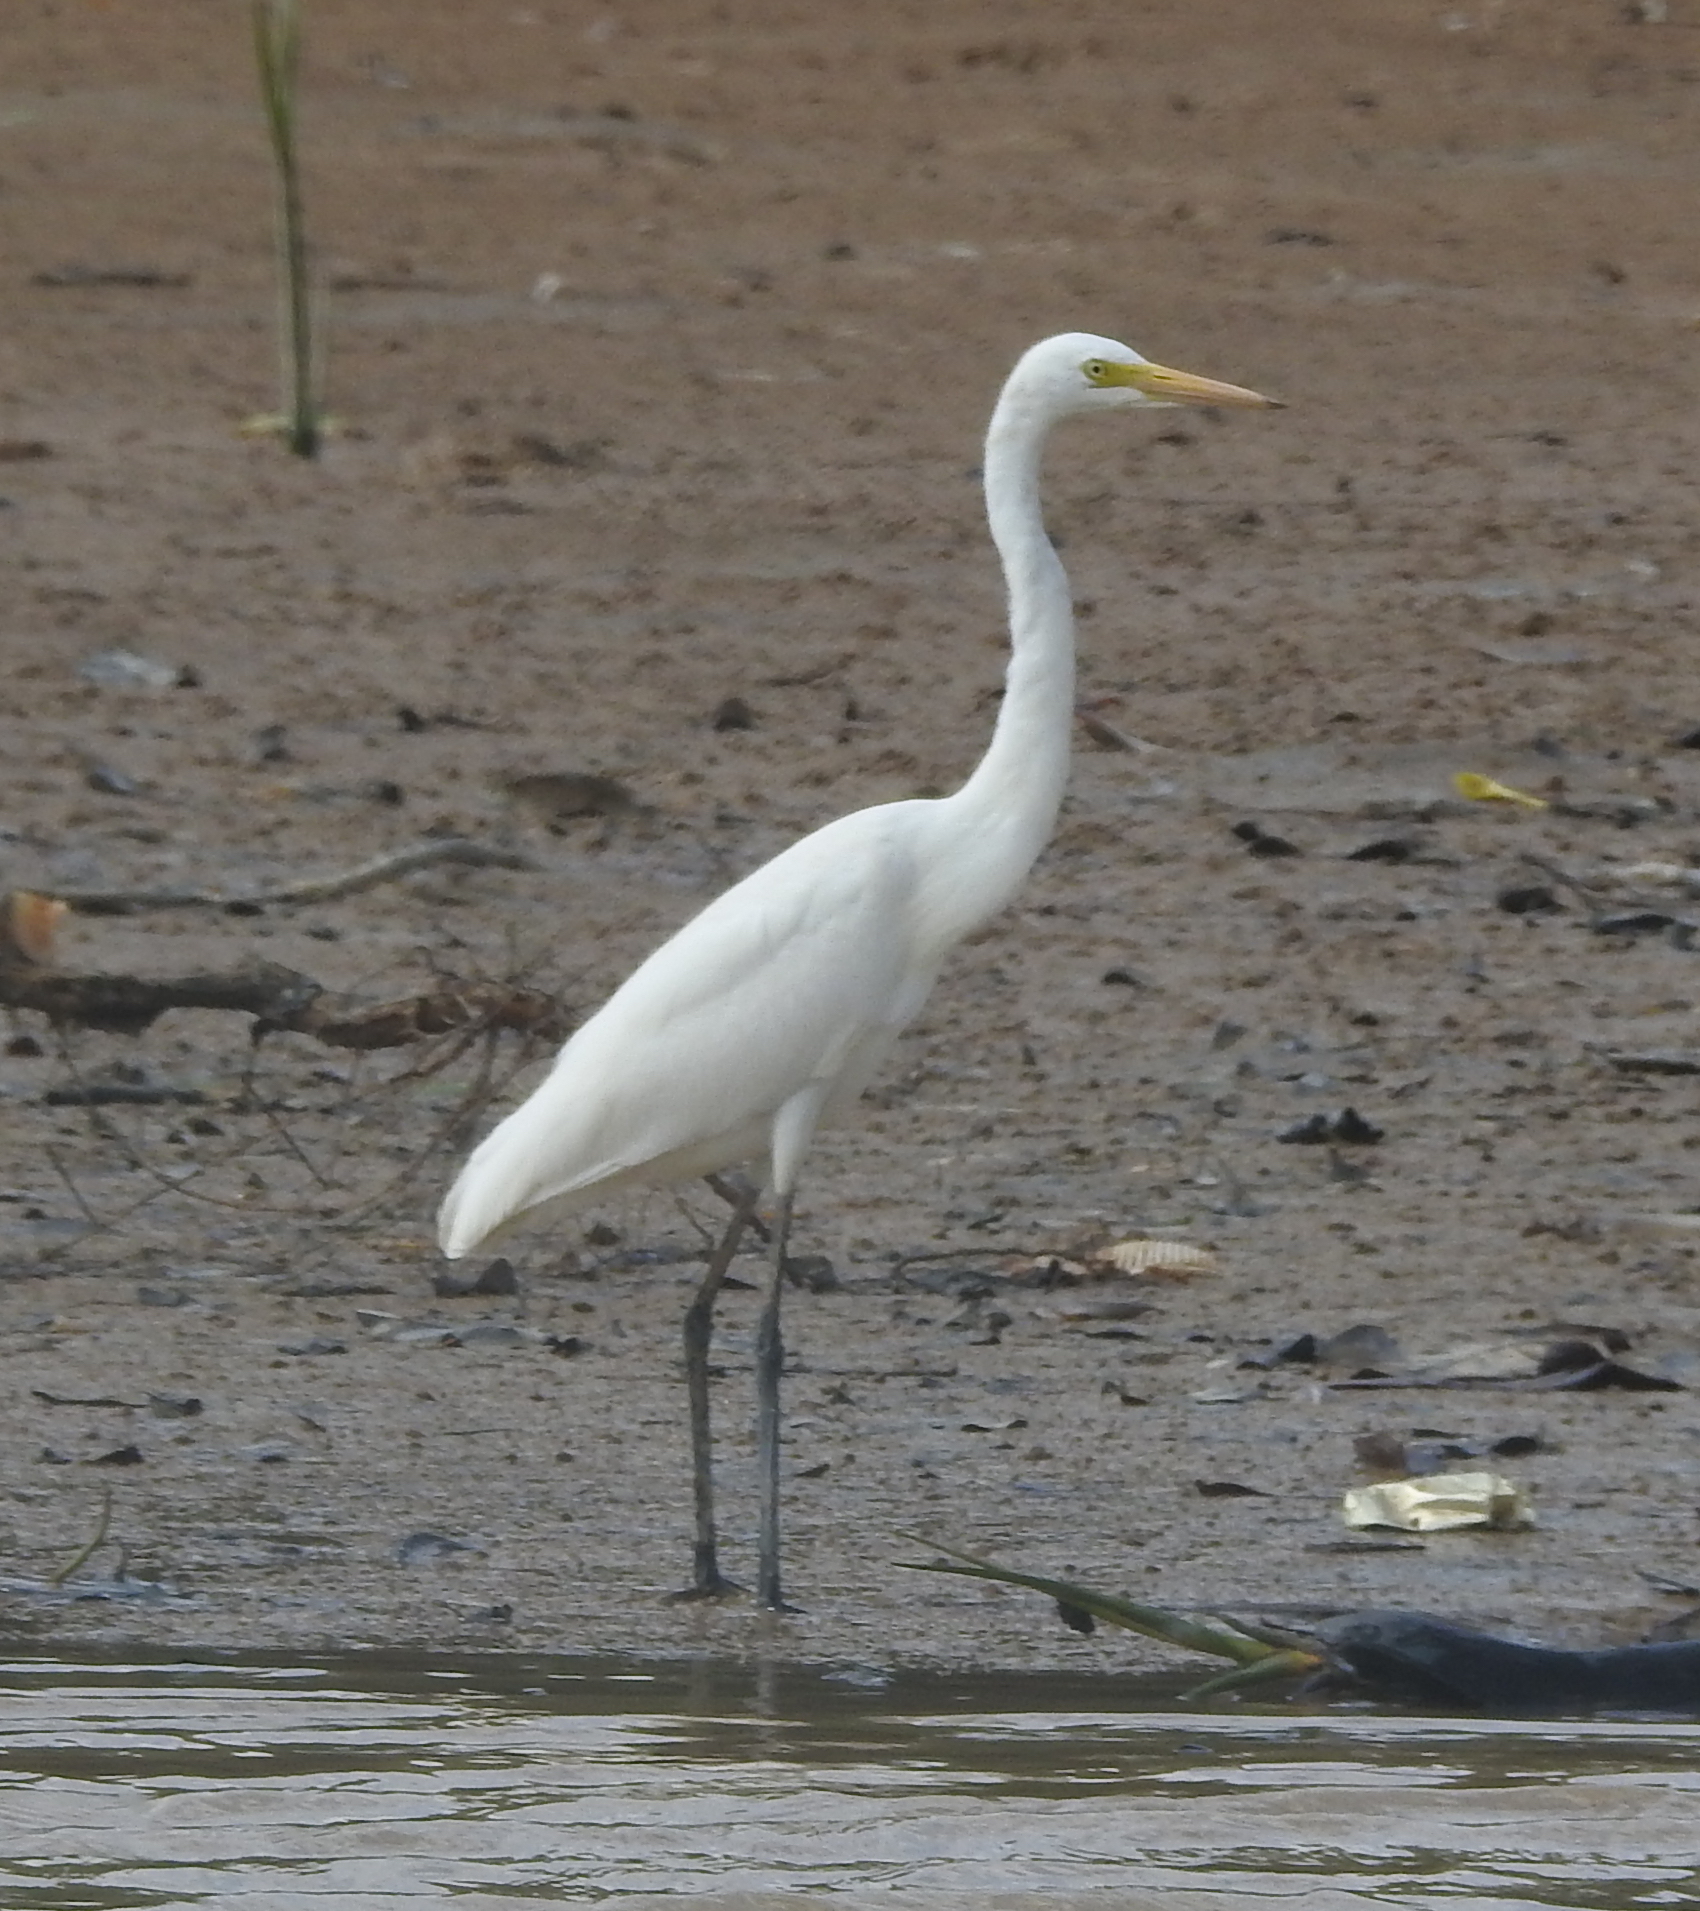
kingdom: Animalia
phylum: Chordata
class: Aves
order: Pelecaniformes
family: Ardeidae
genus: Egretta
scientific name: Egretta intermedia
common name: Intermediate egret
